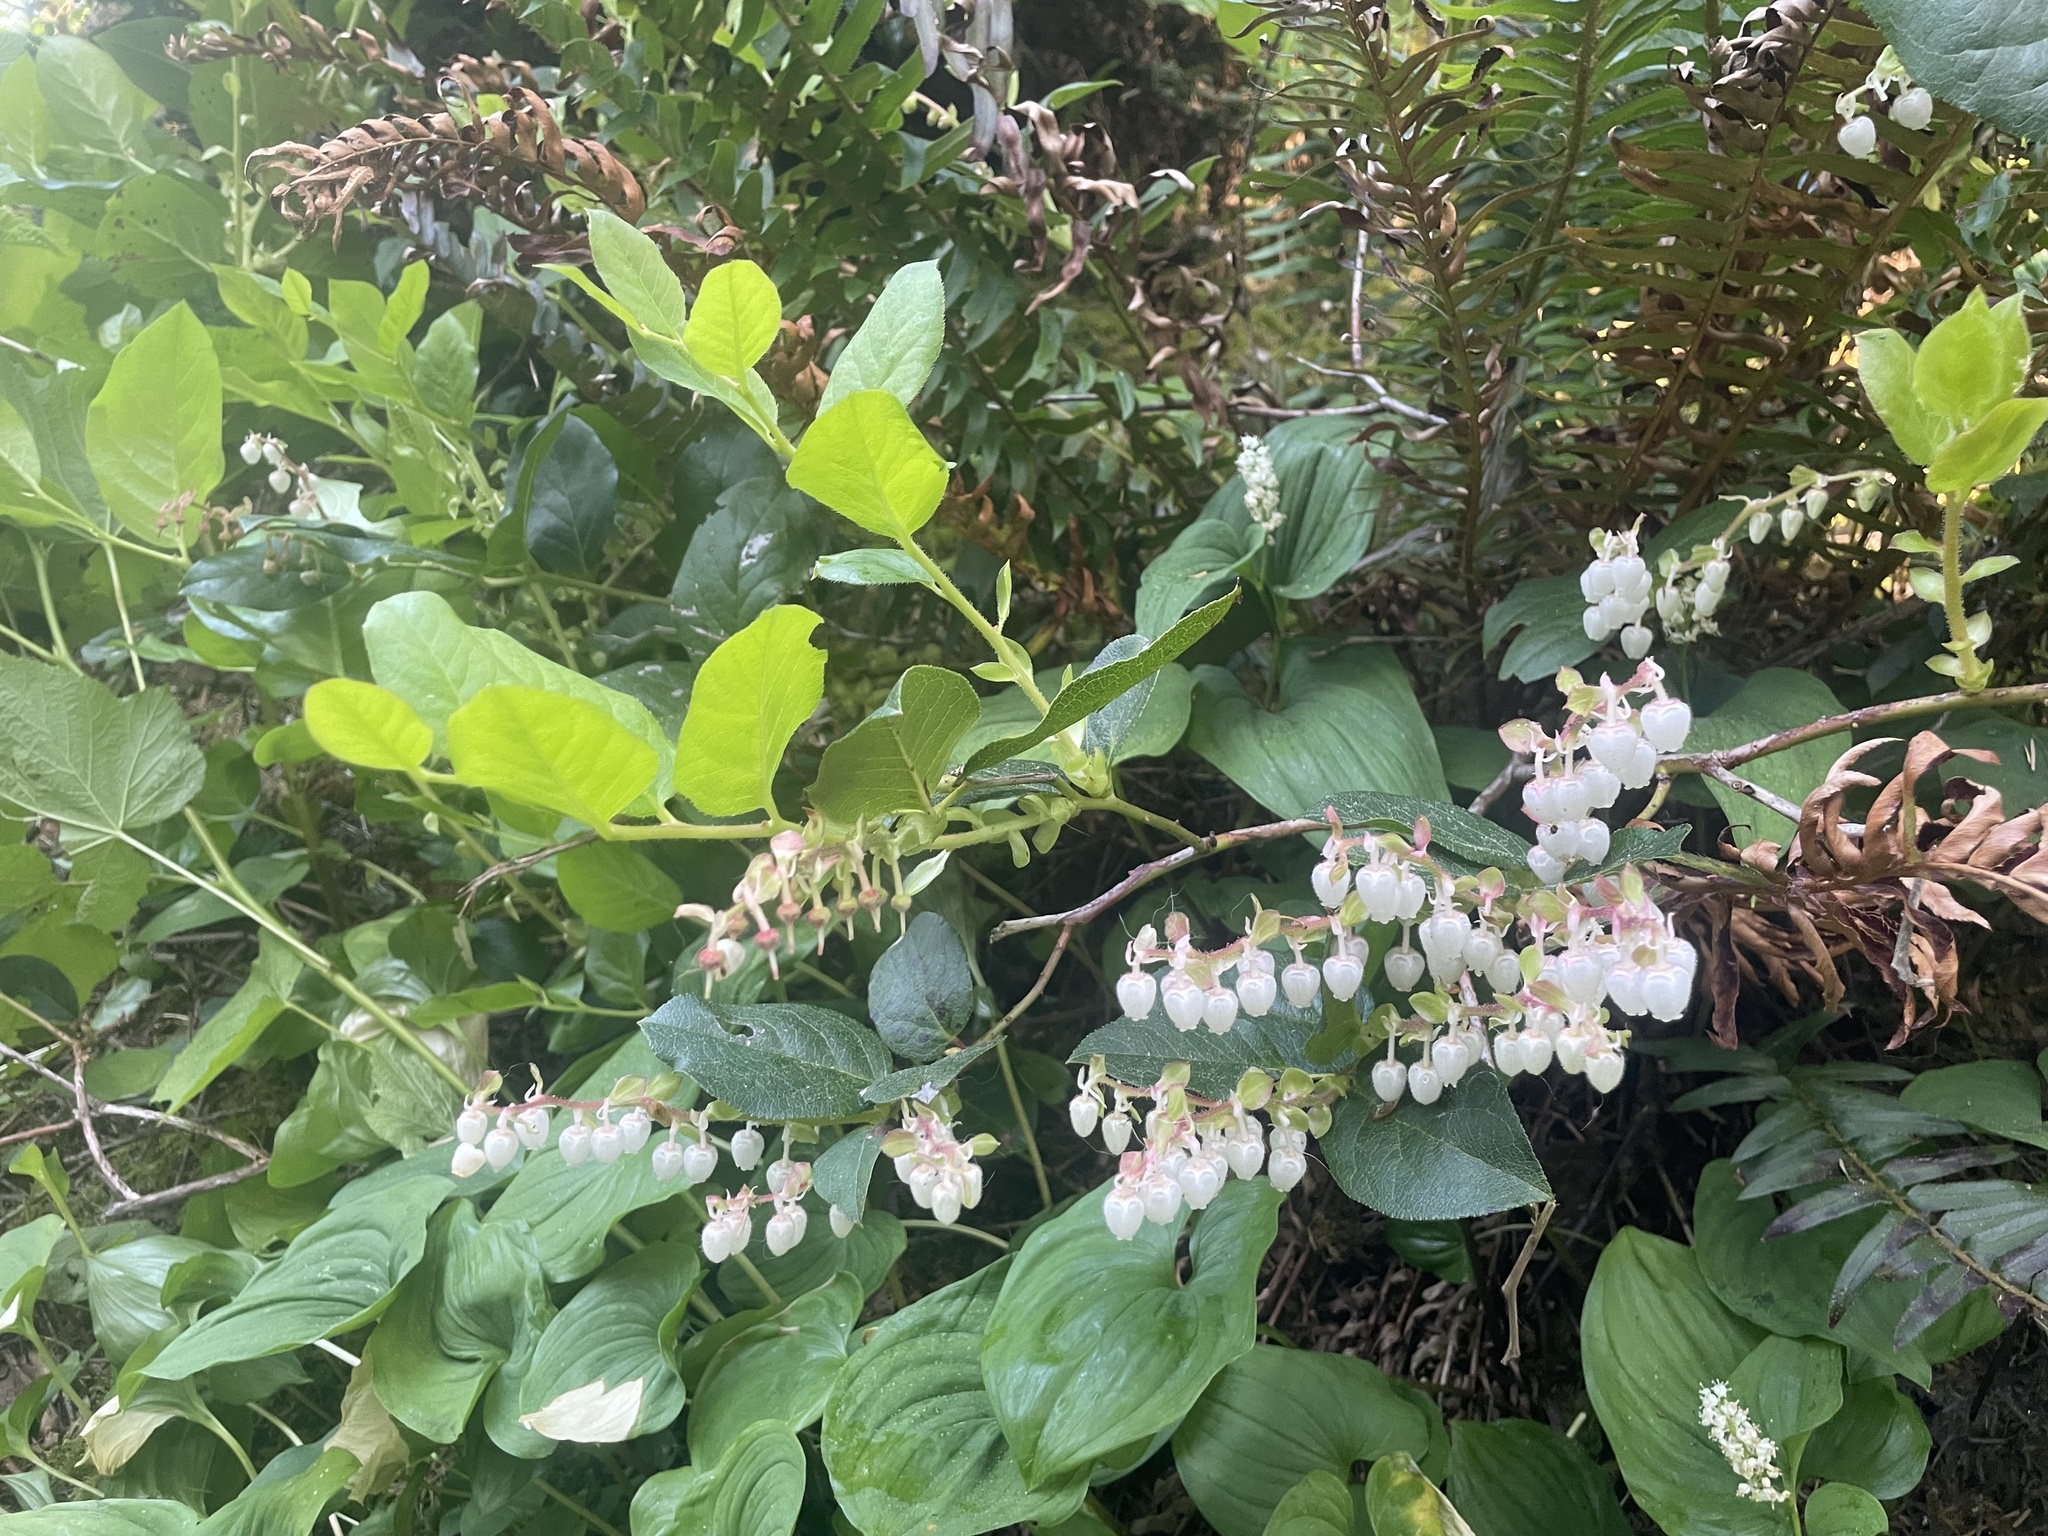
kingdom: Plantae
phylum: Tracheophyta
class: Magnoliopsida
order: Ericales
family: Ericaceae
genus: Gaultheria
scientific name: Gaultheria shallon
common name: Shallon
